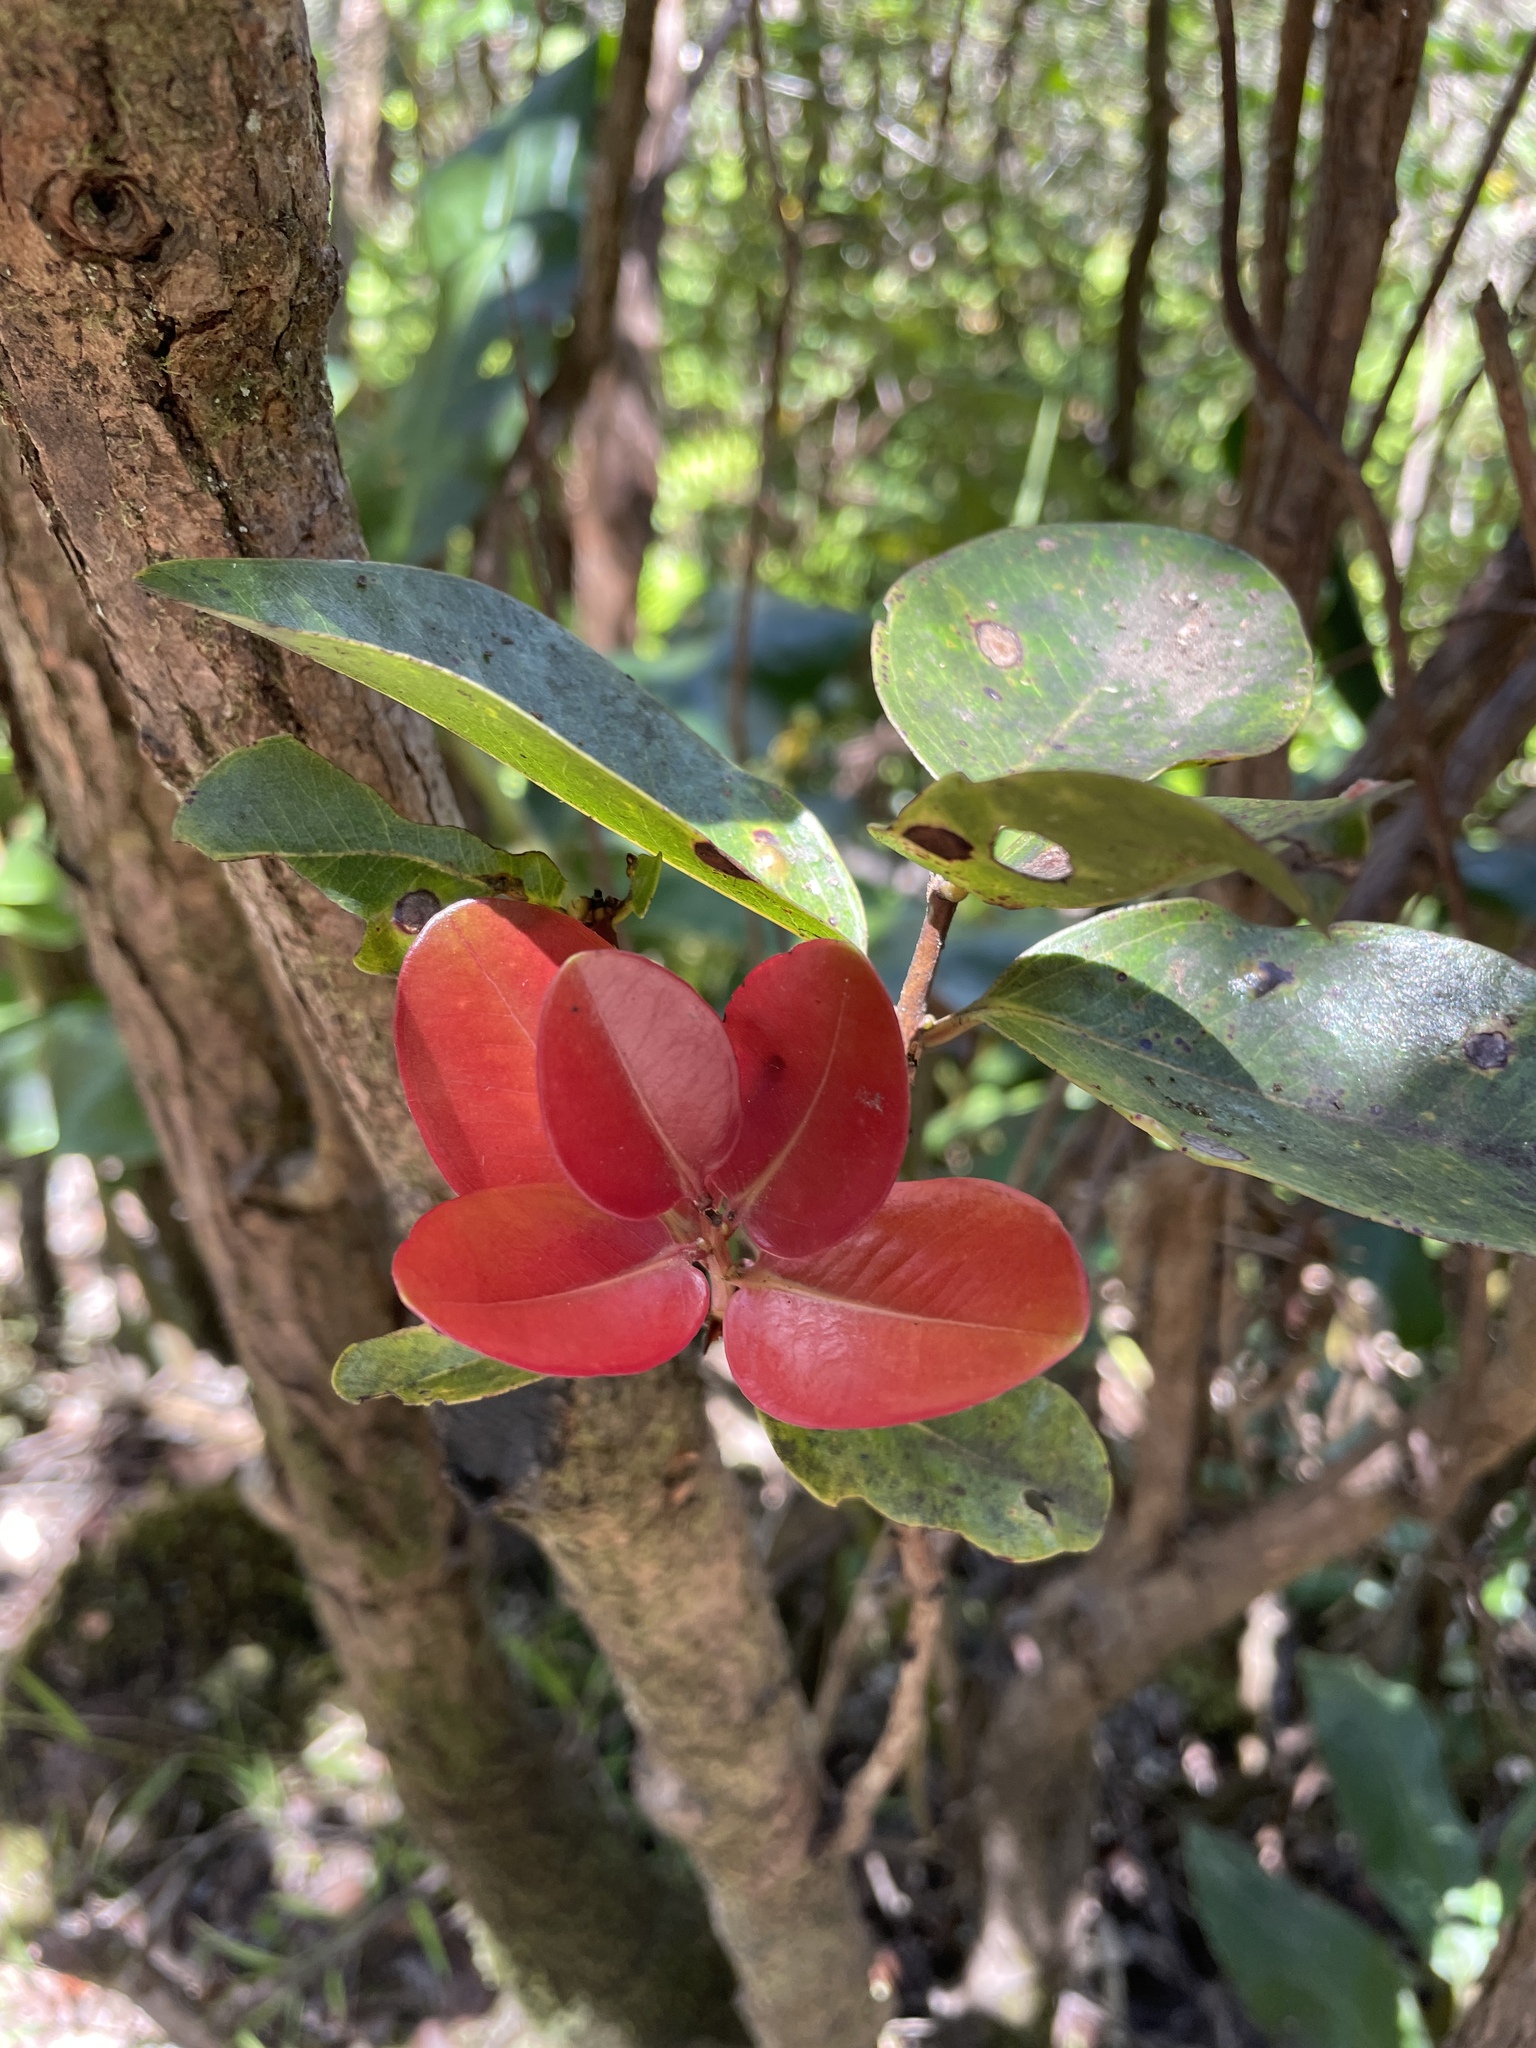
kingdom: Plantae
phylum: Tracheophyta
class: Magnoliopsida
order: Myrtales
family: Myrtaceae
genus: Metrosideros
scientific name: Metrosideros polymorpha
